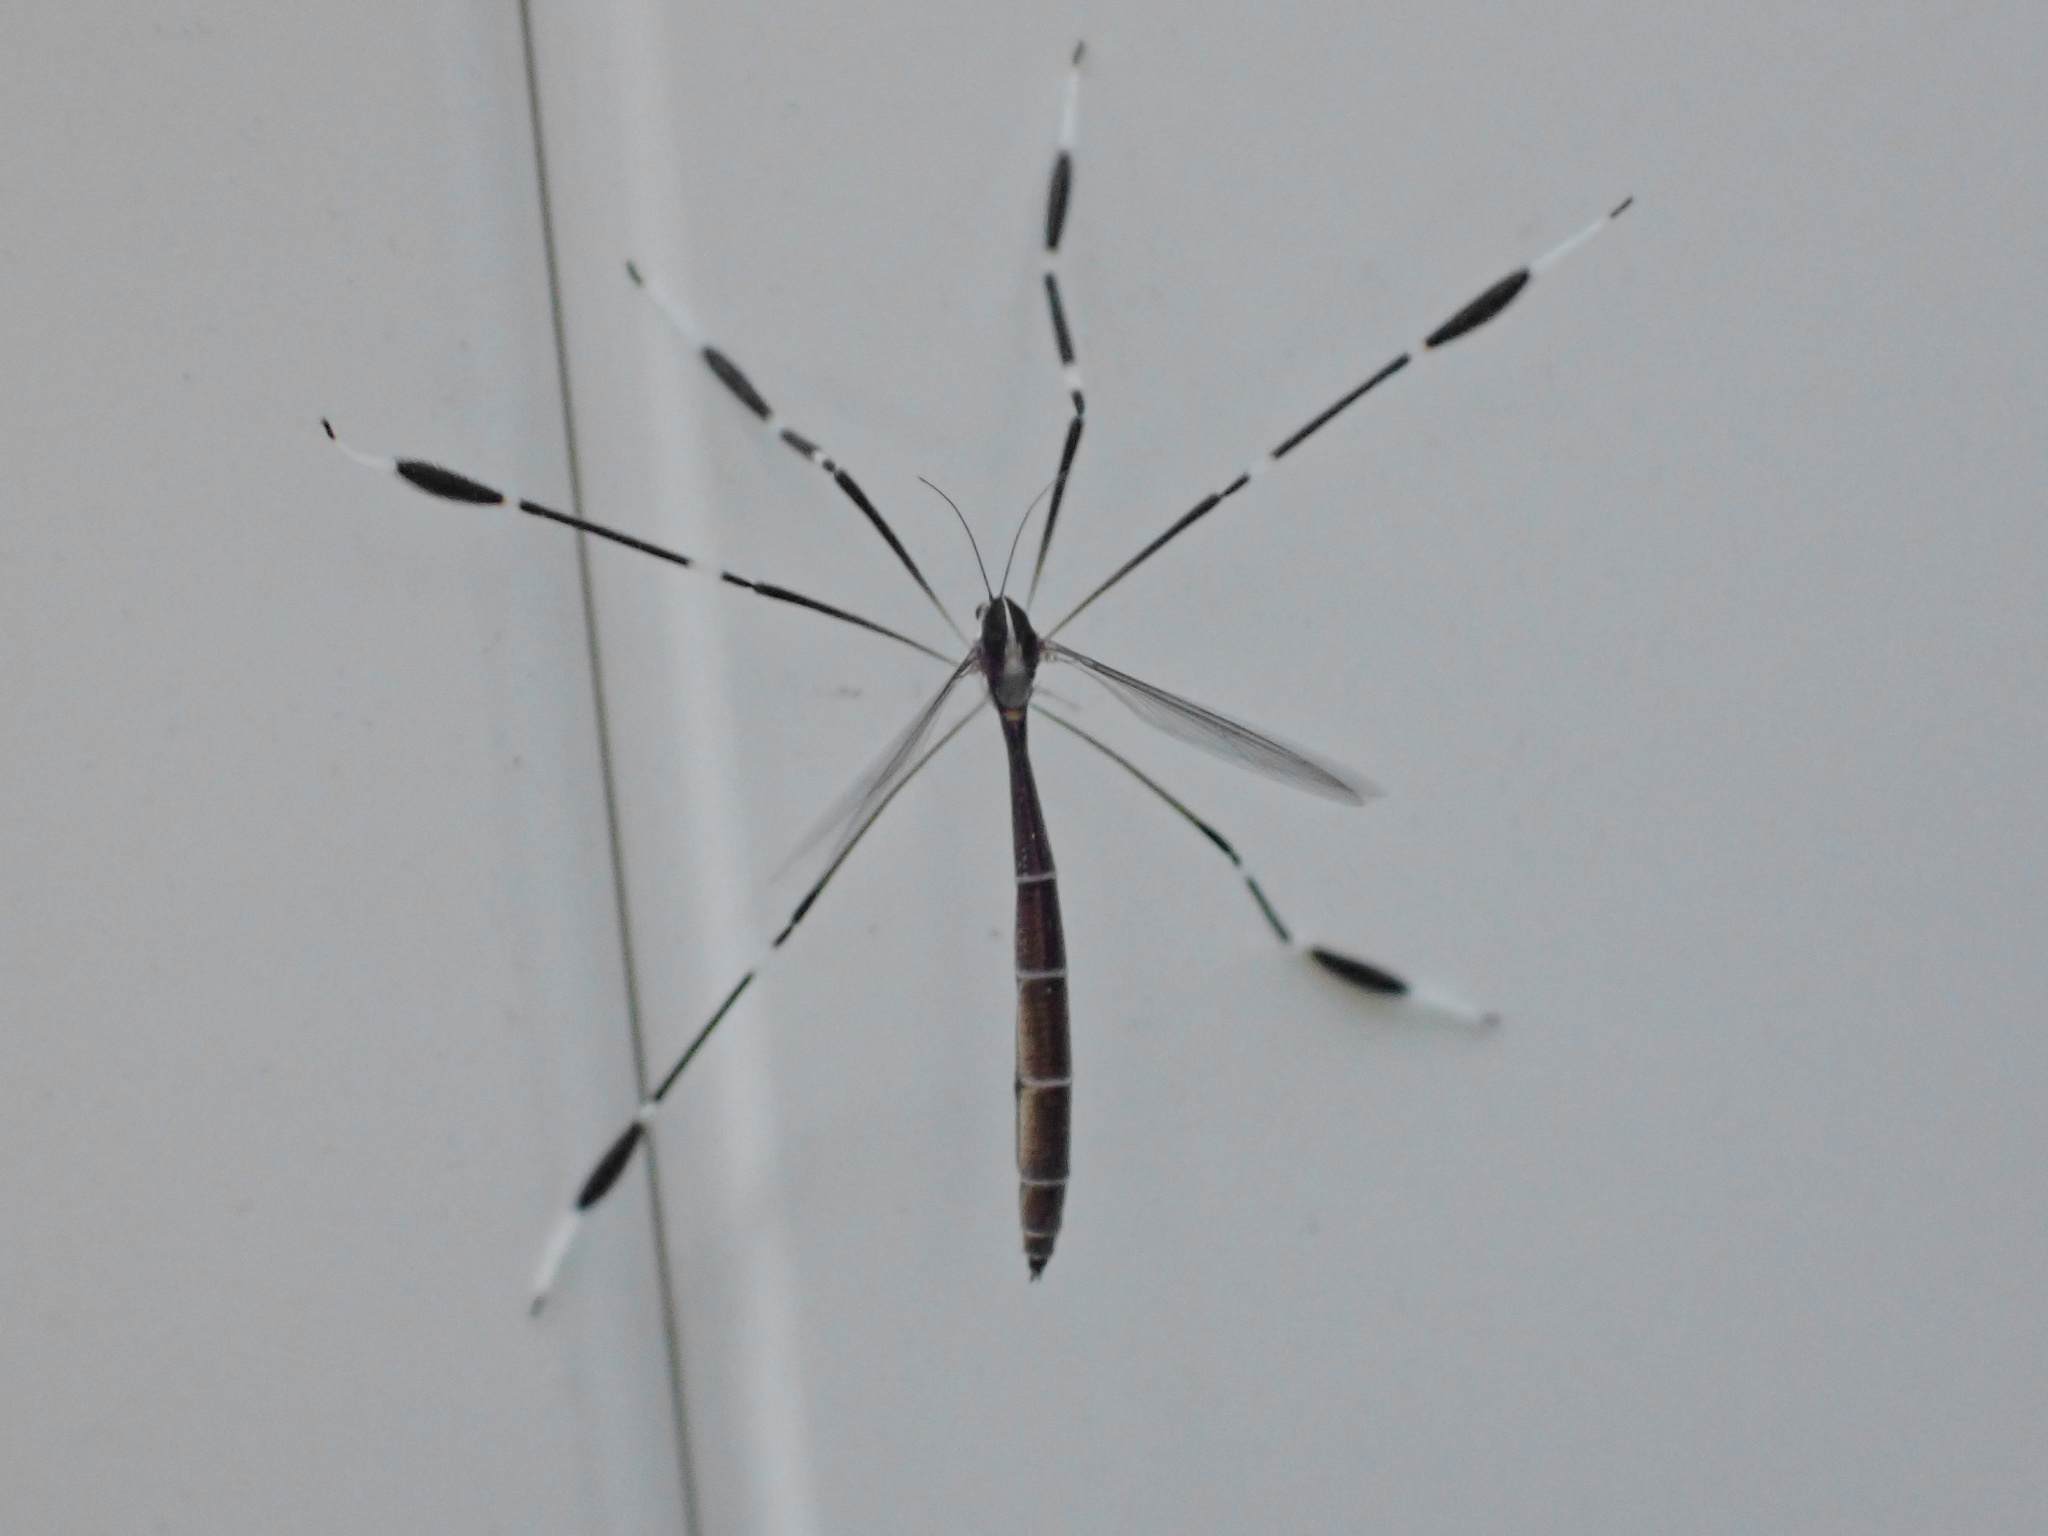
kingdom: Animalia
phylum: Arthropoda
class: Insecta
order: Diptera
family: Ptychopteridae
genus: Bittacomorpha
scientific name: Bittacomorpha clavipes
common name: Eastern phantom crane fly
